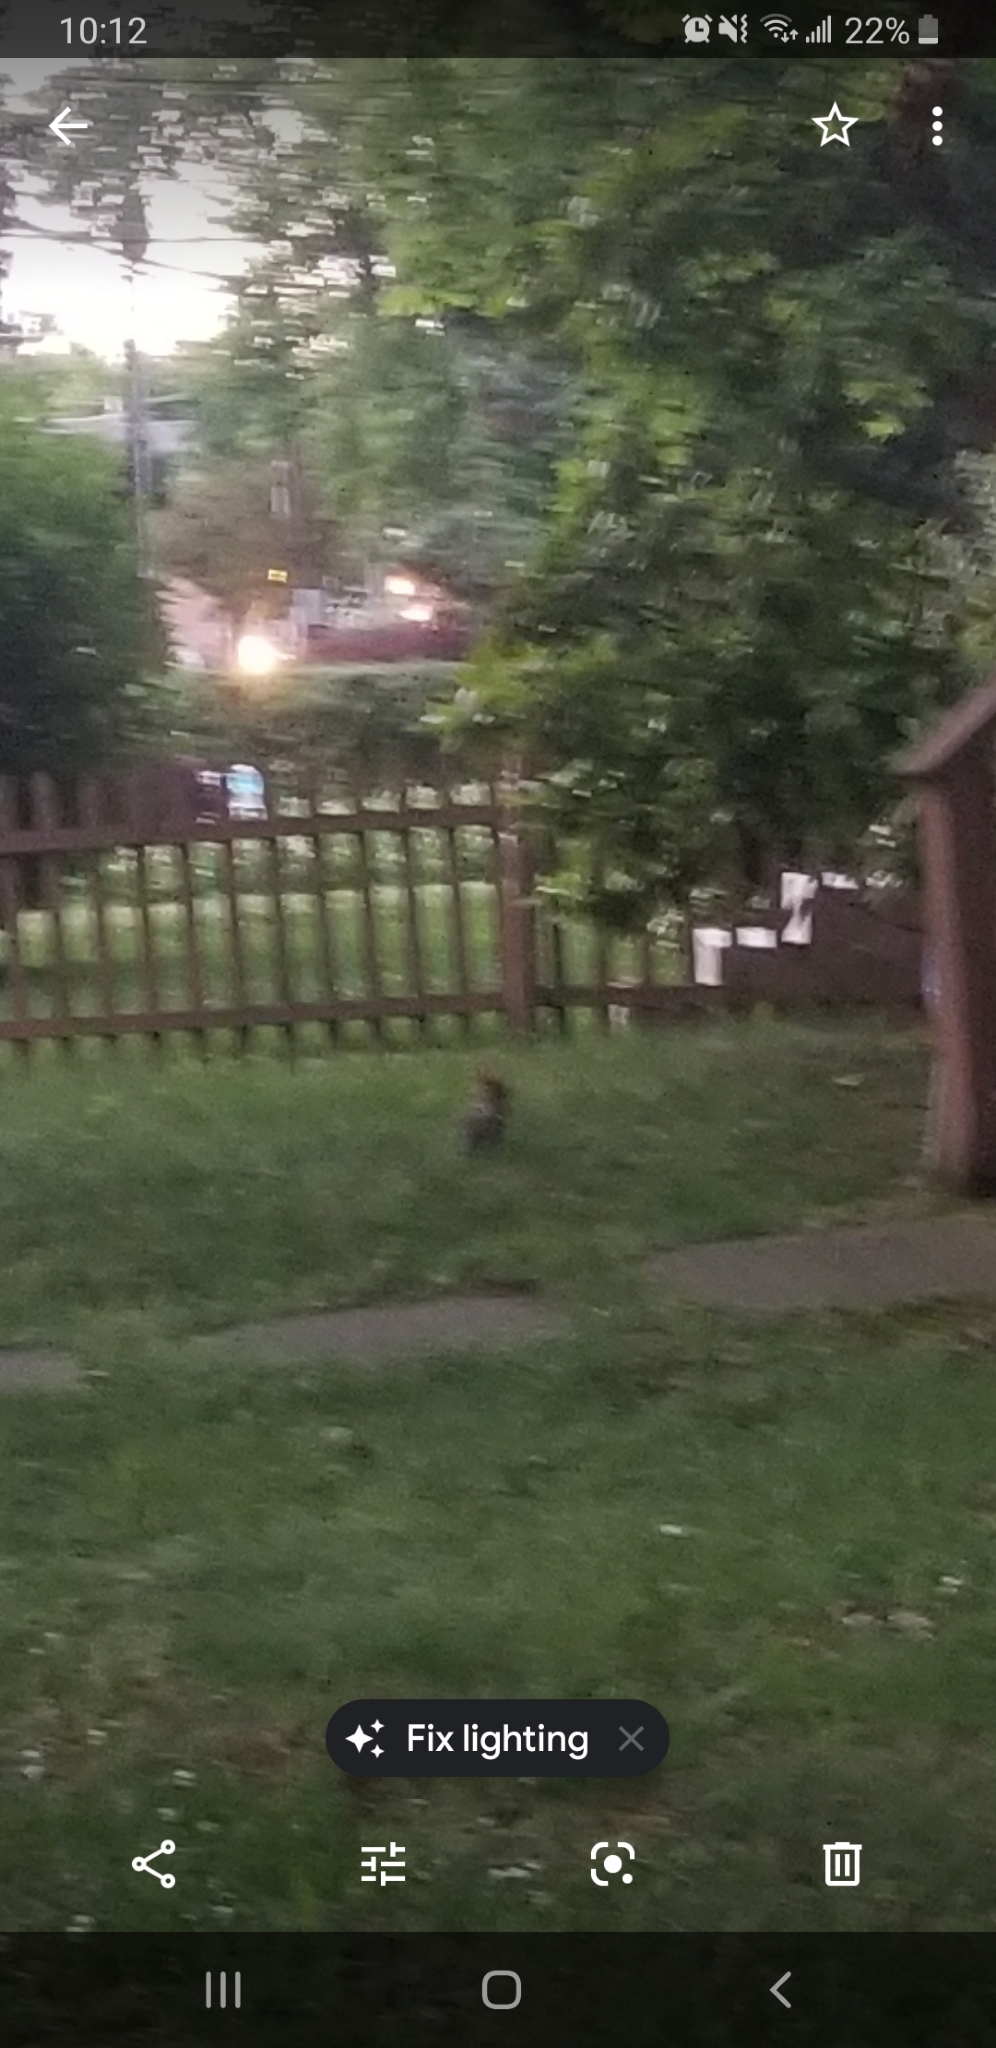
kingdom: Animalia
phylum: Chordata
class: Mammalia
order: Lagomorpha
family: Leporidae
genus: Sylvilagus
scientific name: Sylvilagus floridanus
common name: Eastern cottontail
